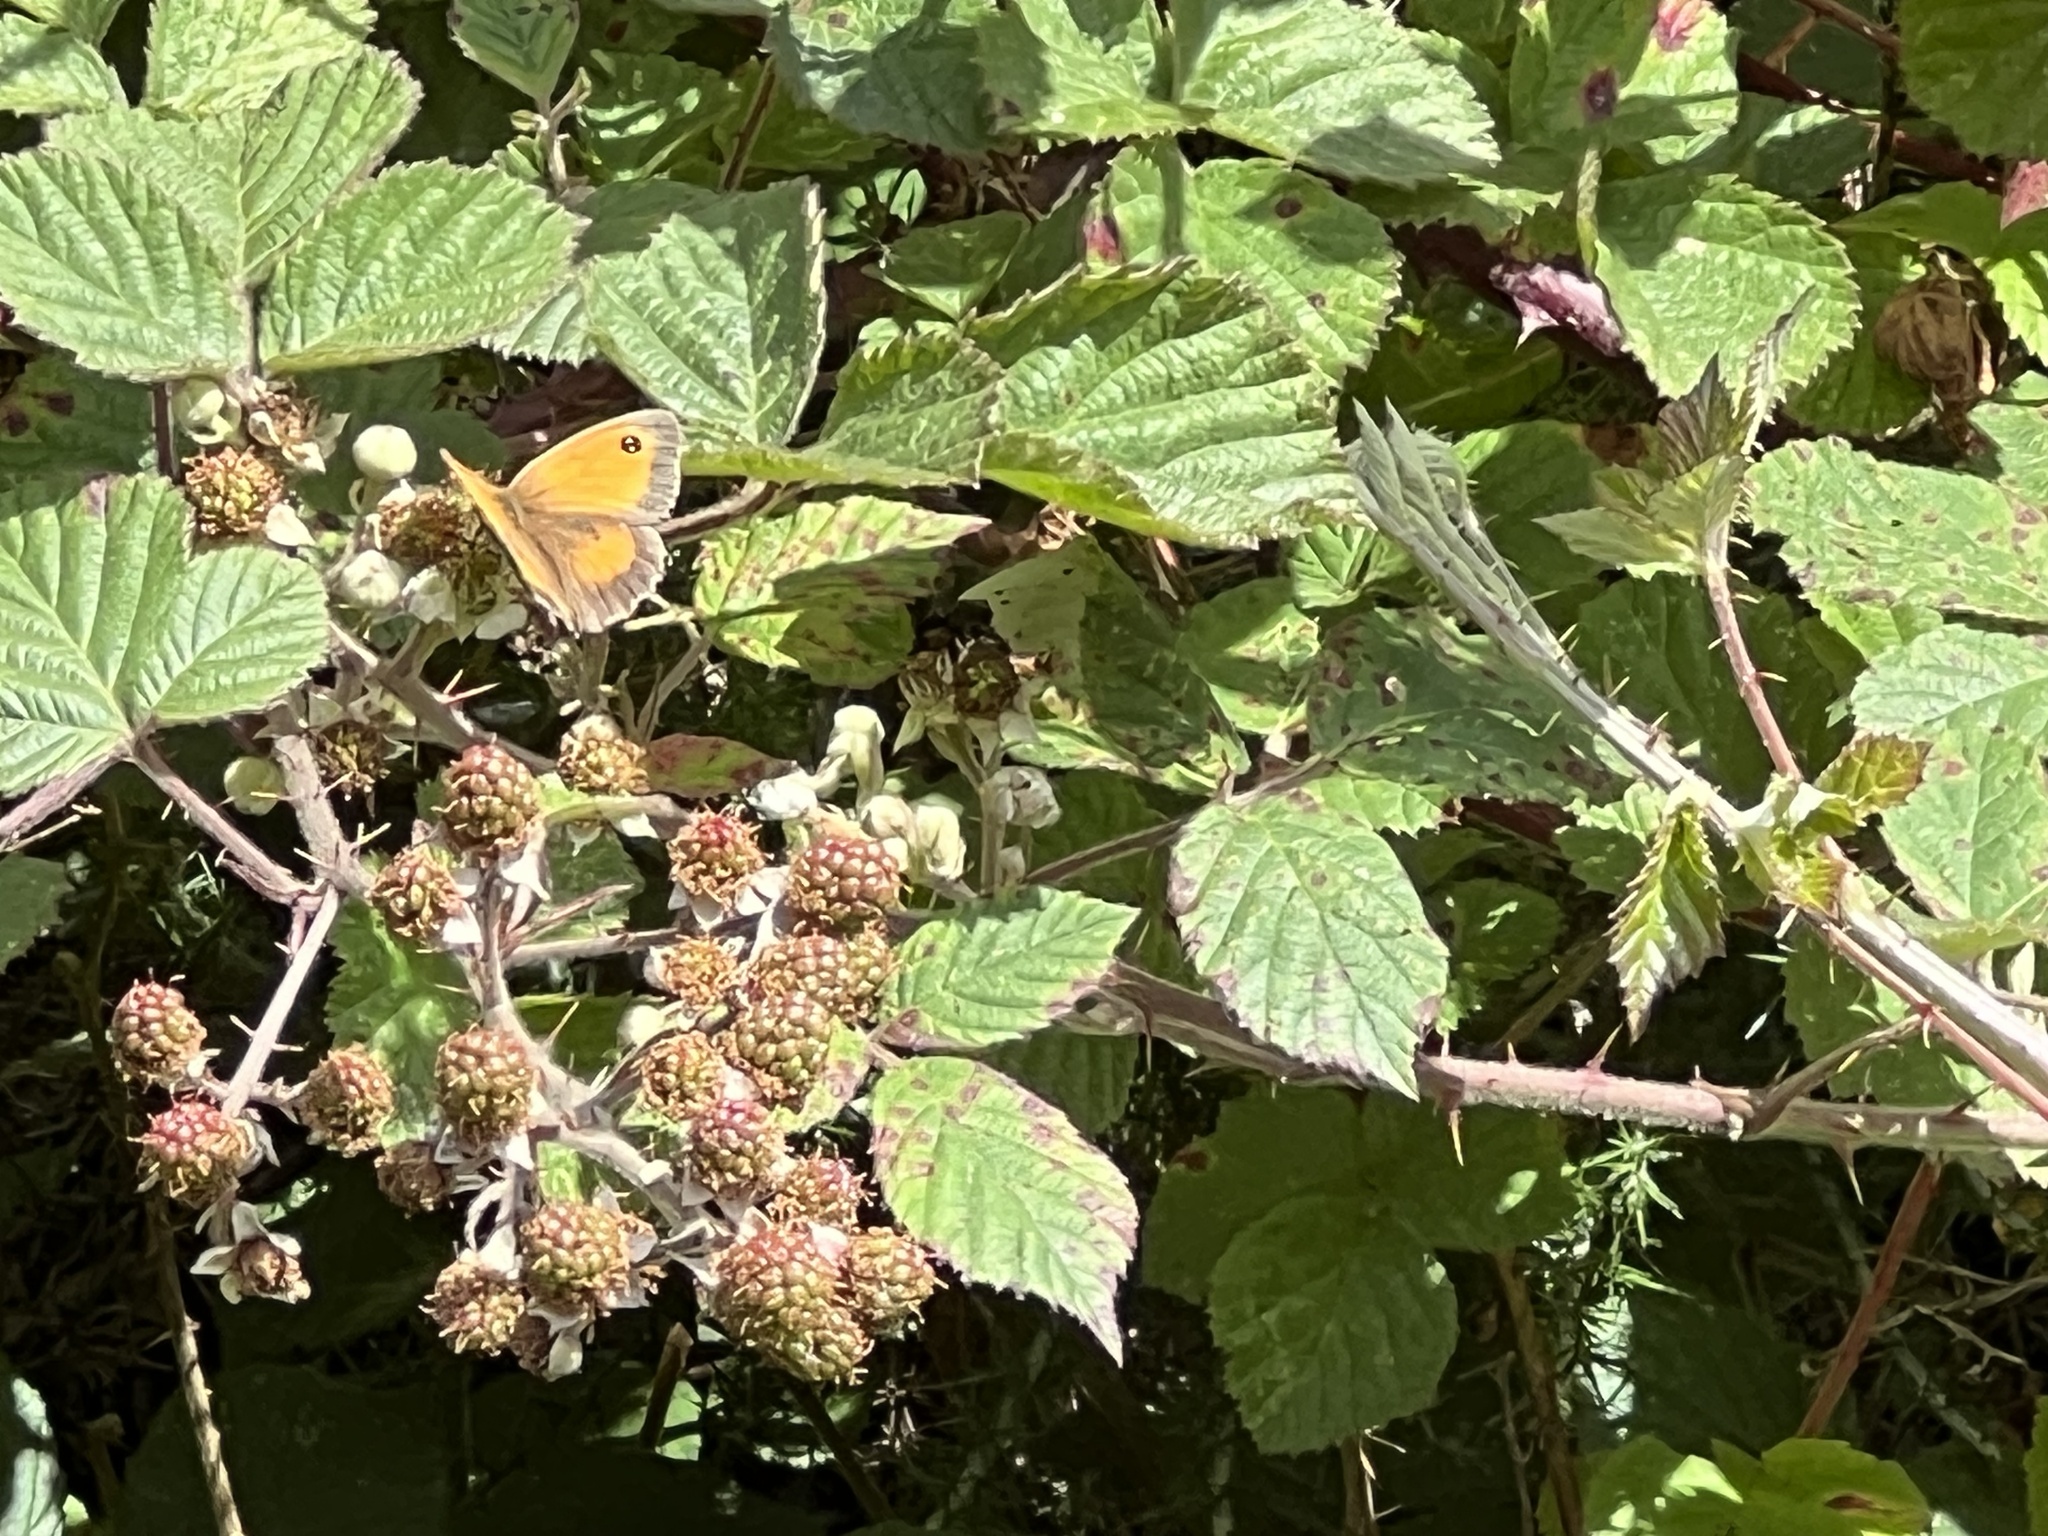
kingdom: Animalia
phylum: Arthropoda
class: Insecta
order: Lepidoptera
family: Nymphalidae
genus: Pyronia
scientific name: Pyronia tithonus
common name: Gatekeeper
